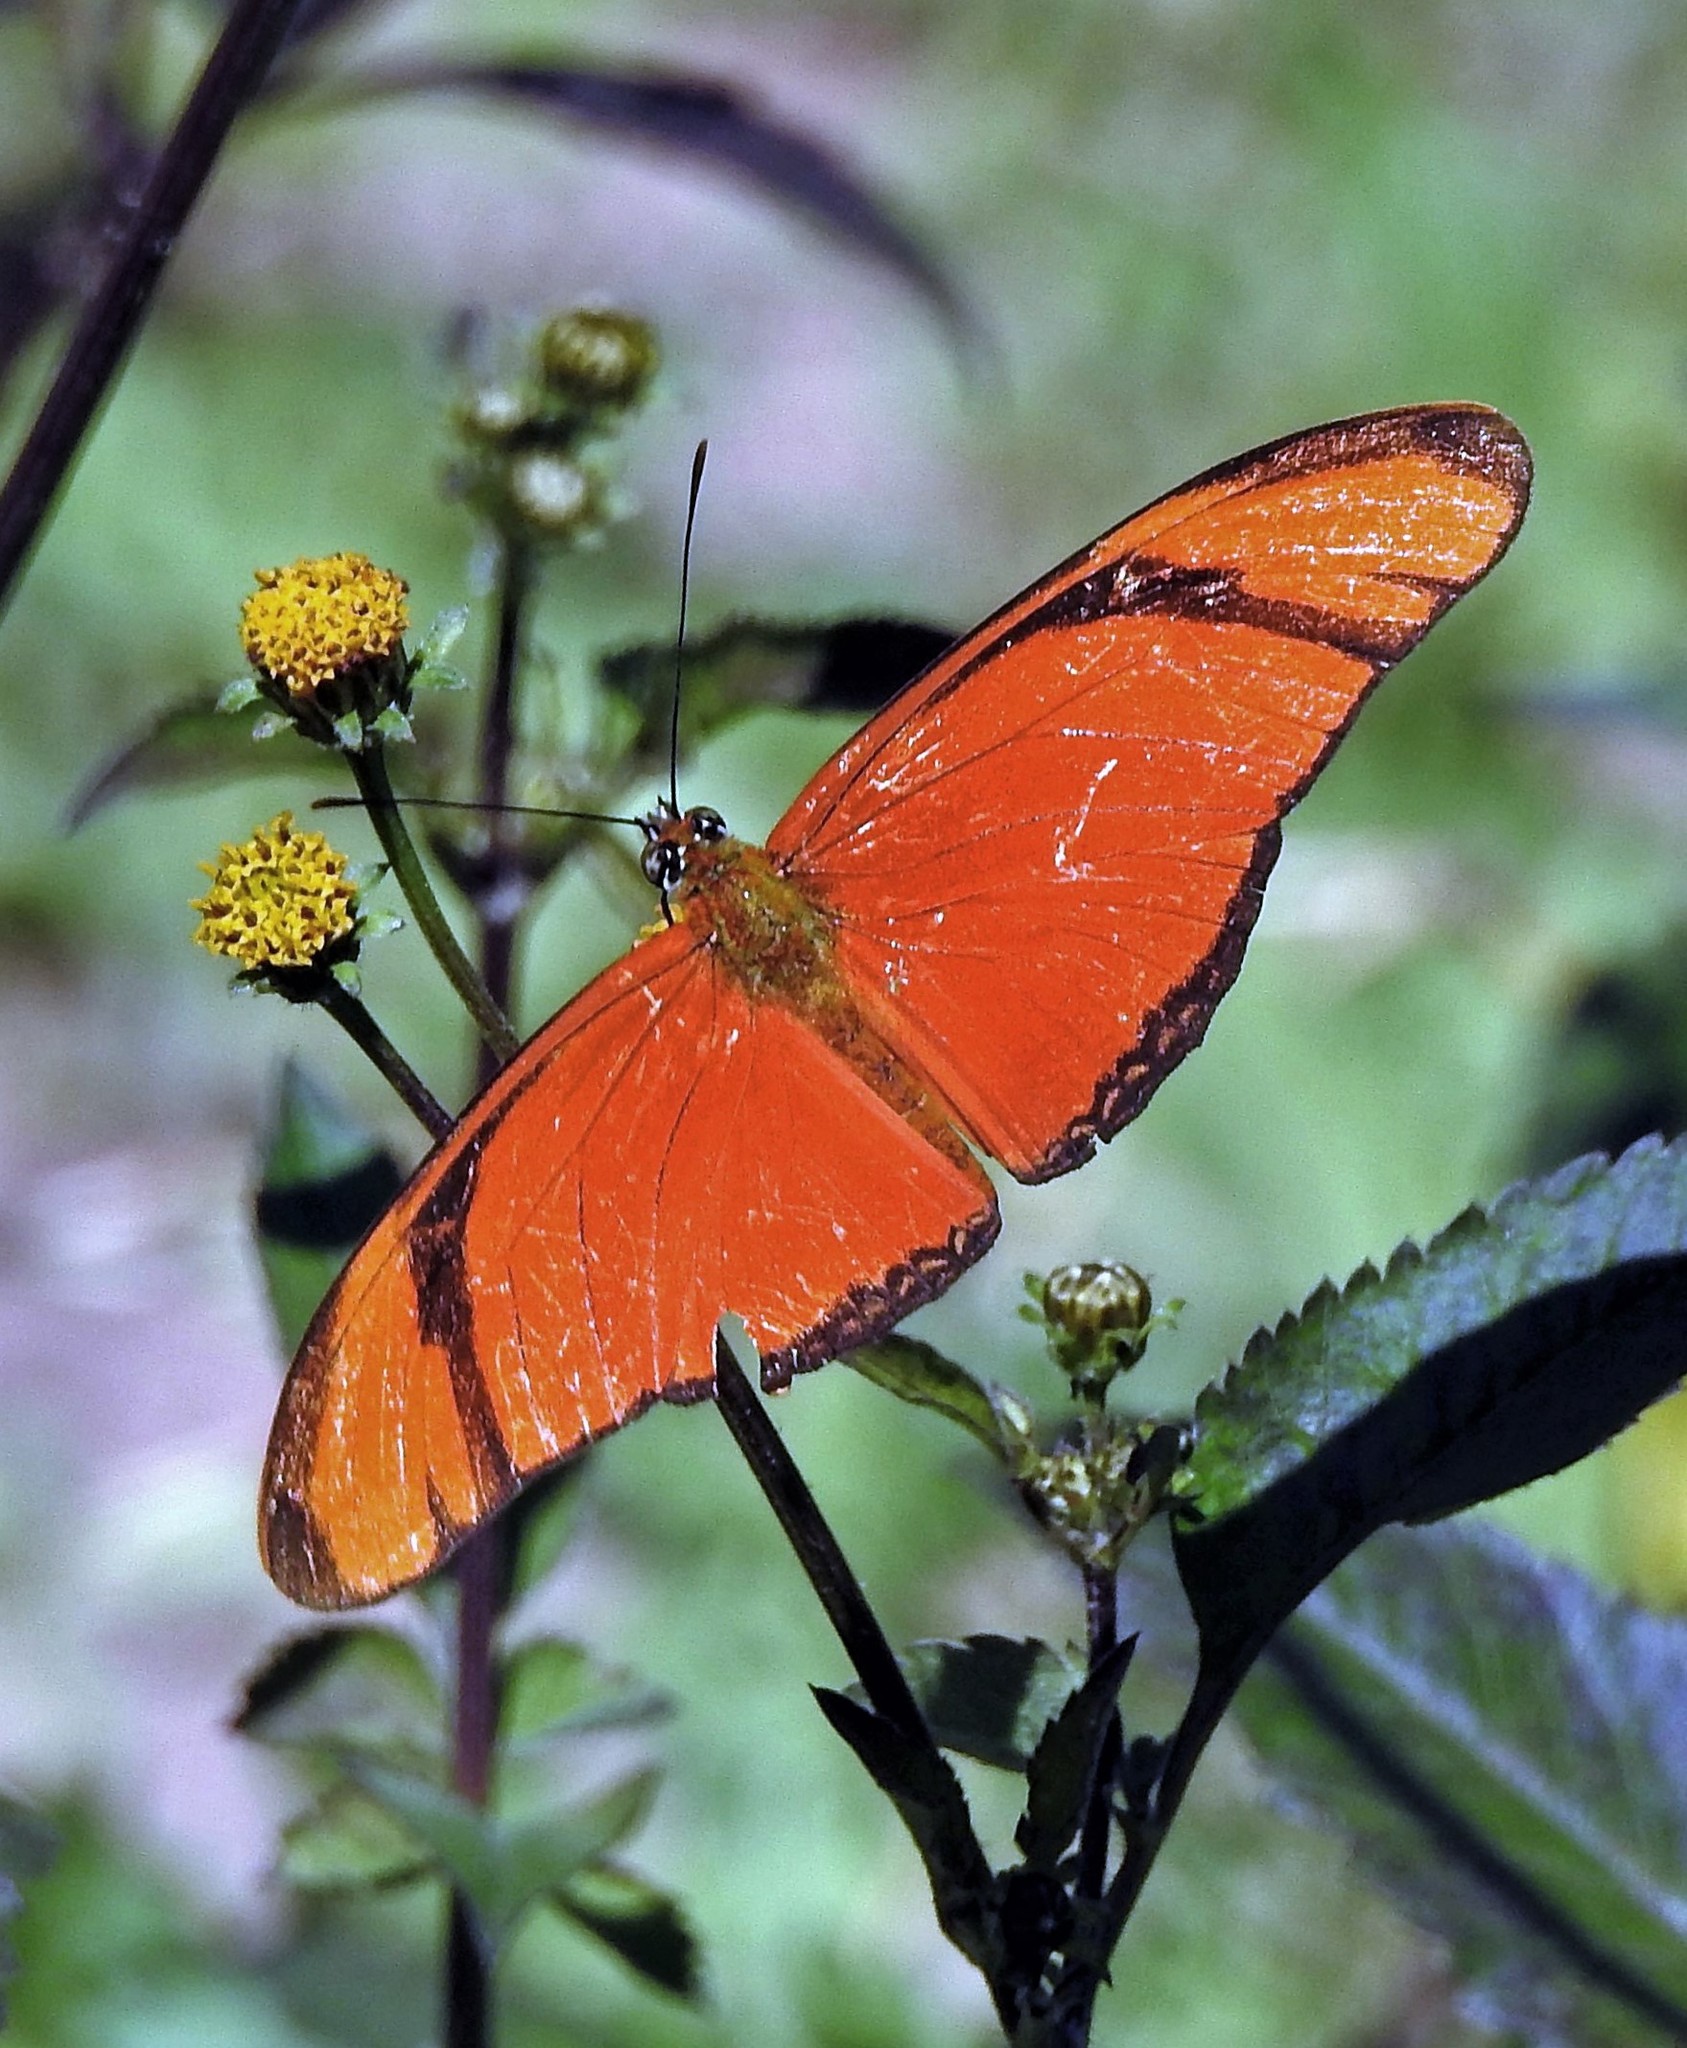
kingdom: Animalia
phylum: Arthropoda
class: Insecta
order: Lepidoptera
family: Nymphalidae
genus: Dryas
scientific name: Dryas iulia
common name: Flambeau
